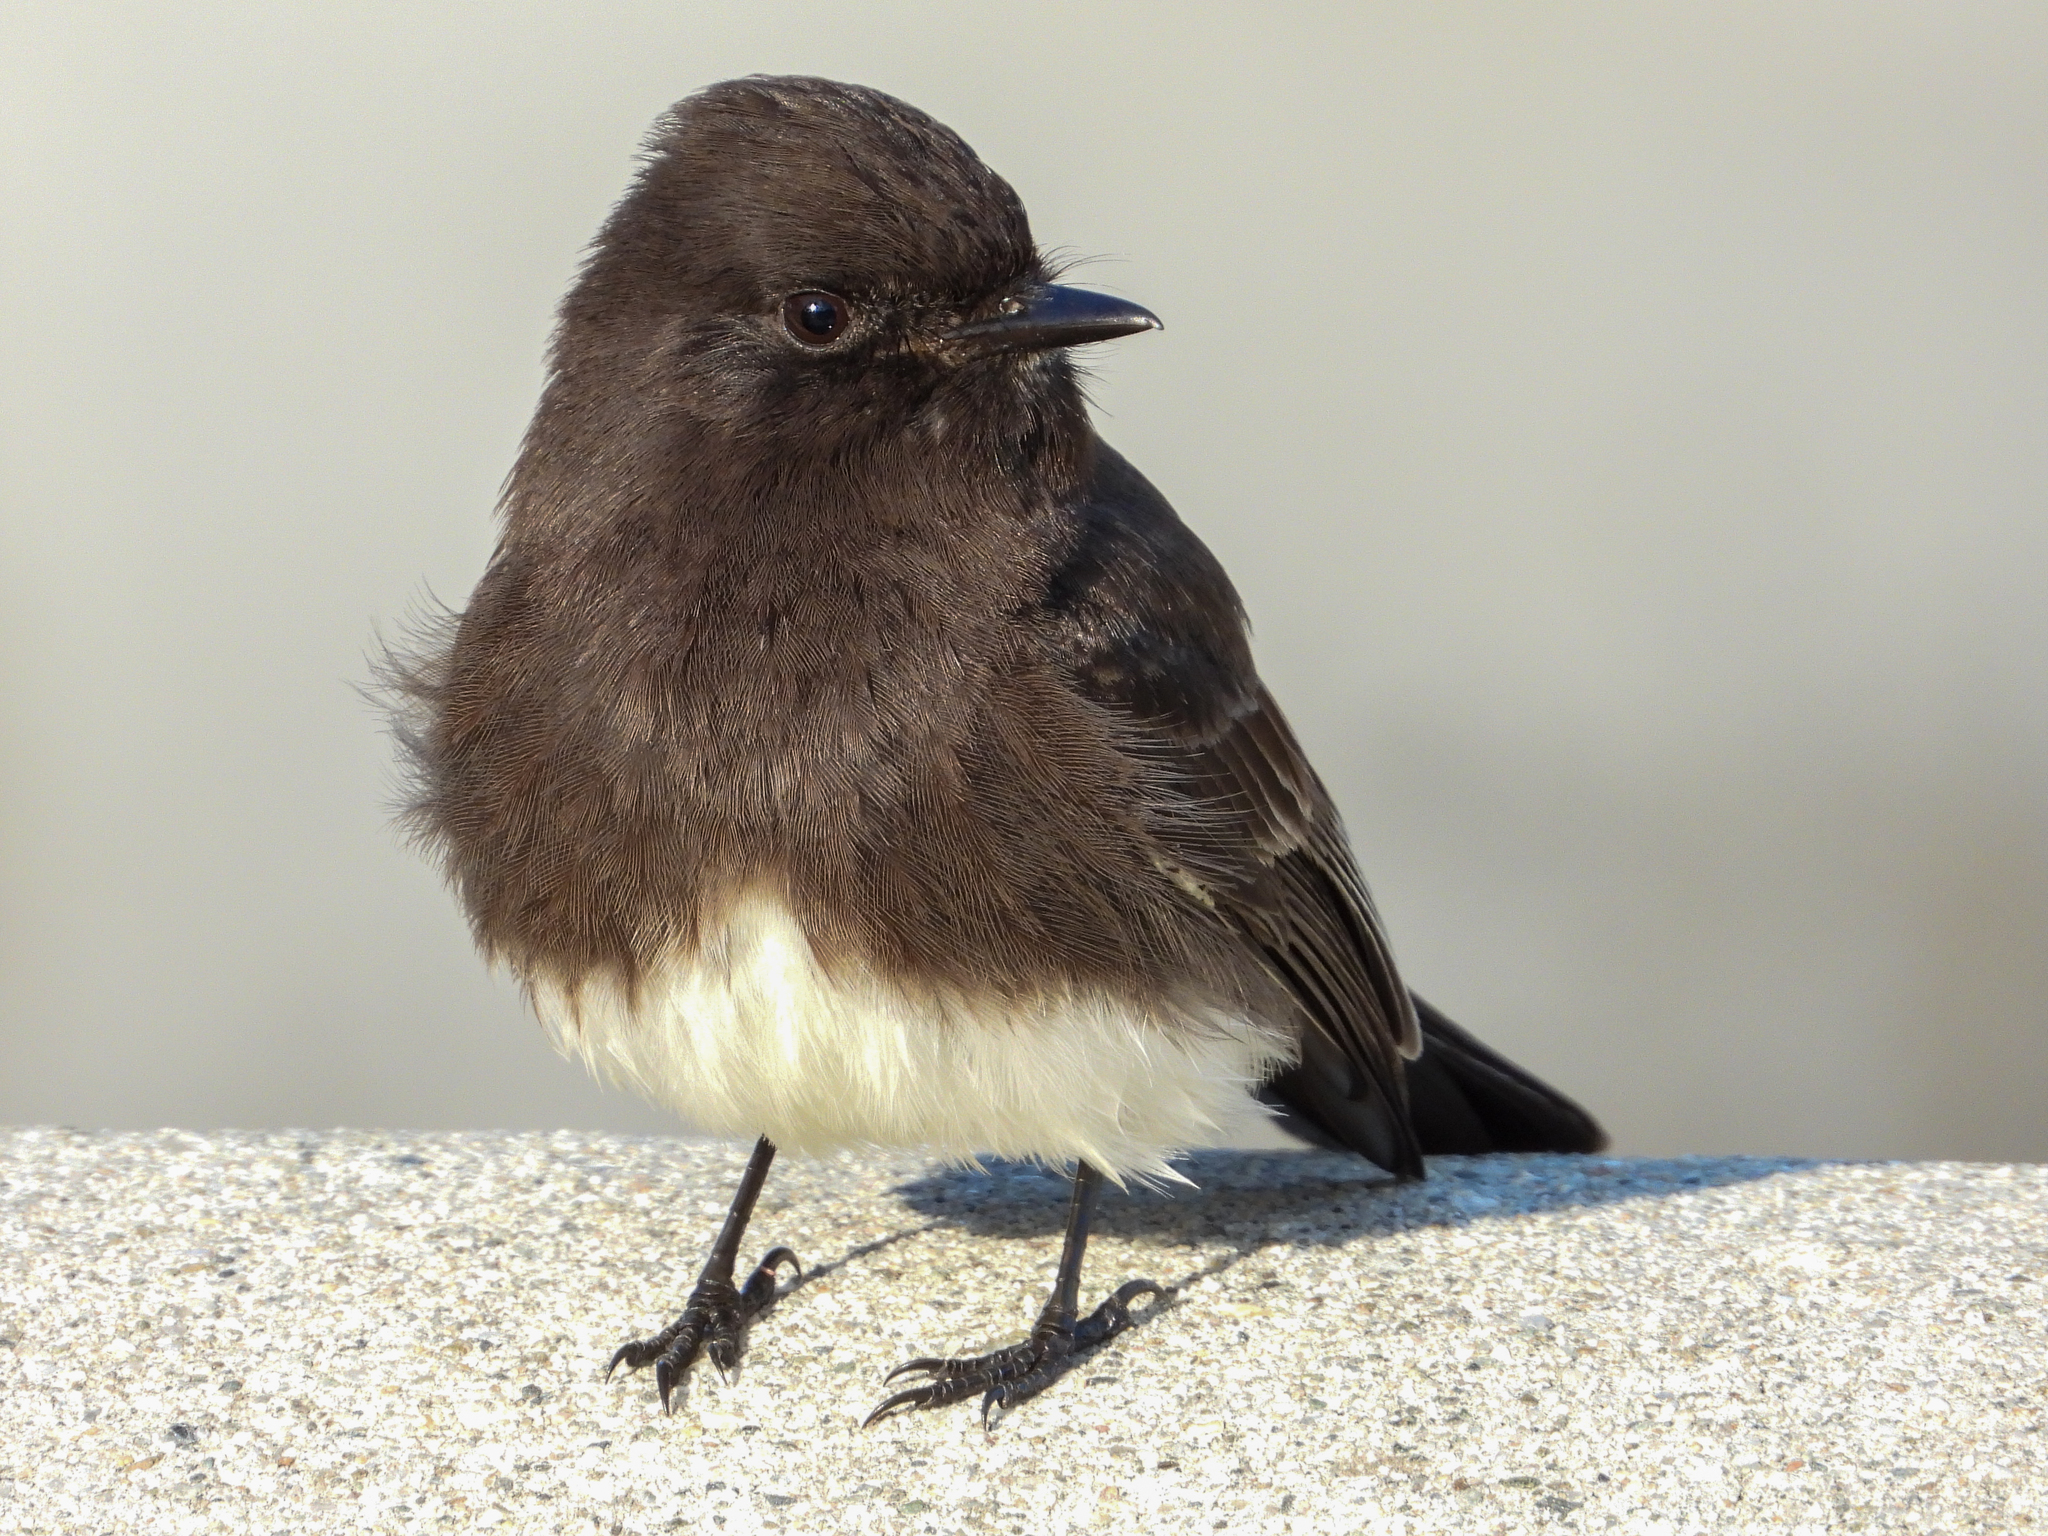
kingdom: Animalia
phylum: Chordata
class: Aves
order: Passeriformes
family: Tyrannidae
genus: Sayornis
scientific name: Sayornis nigricans
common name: Black phoebe
